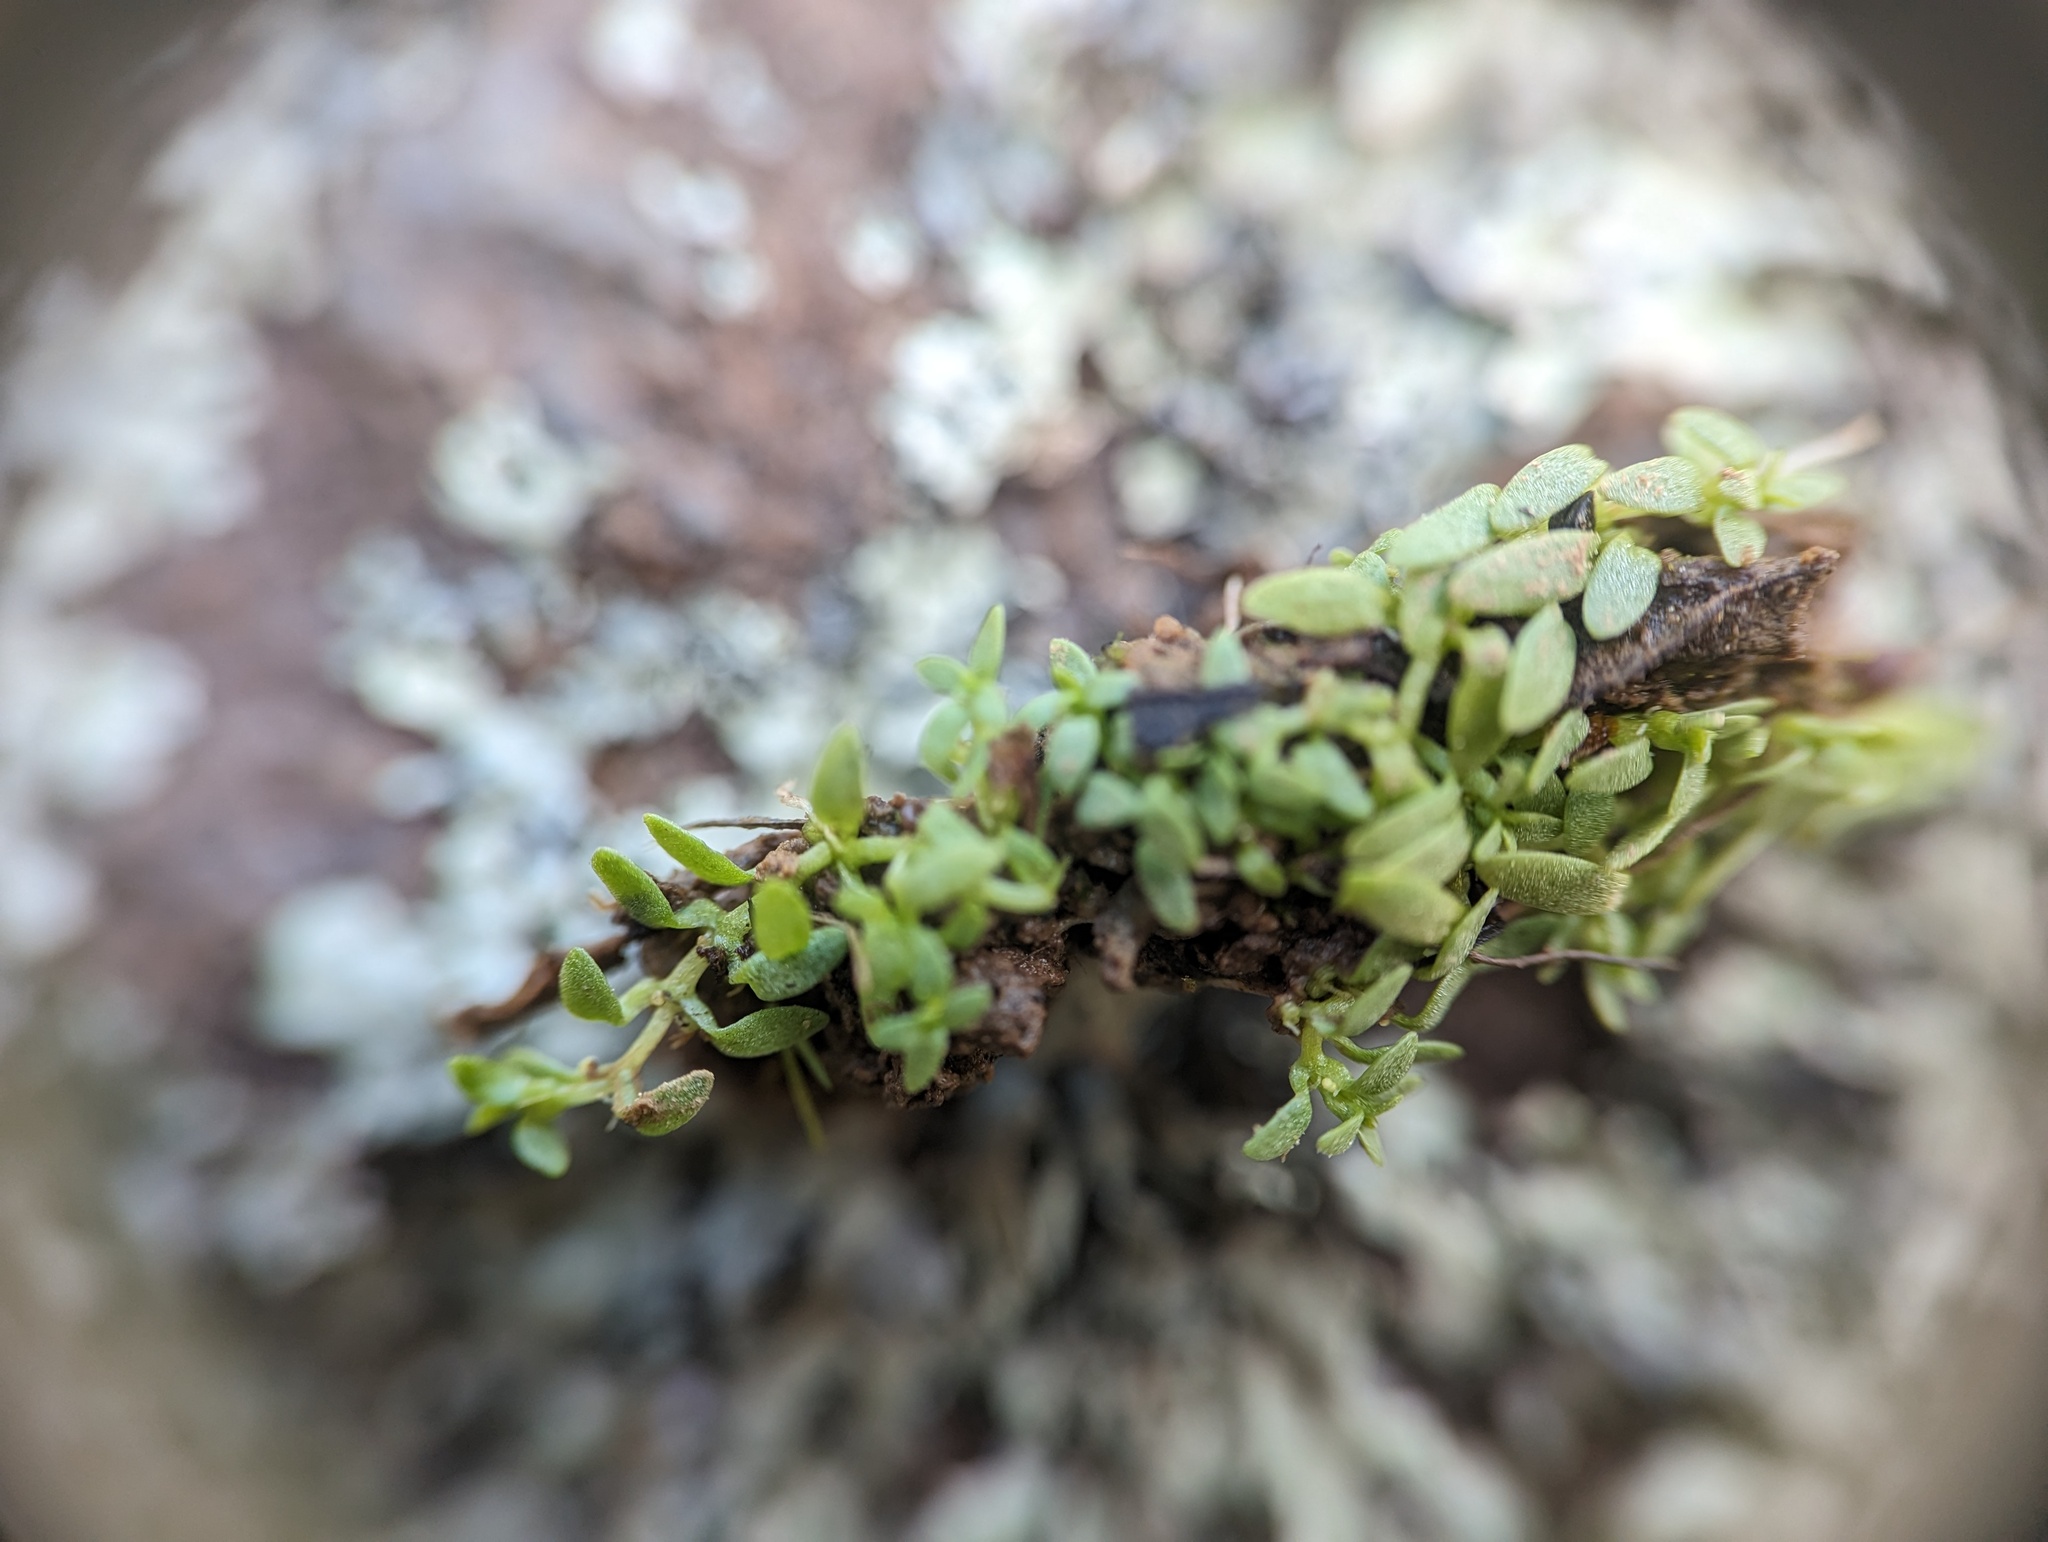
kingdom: Plantae
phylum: Tracheophyta
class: Magnoliopsida
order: Lamiales
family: Plantaginaceae
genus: Callitriche
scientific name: Callitriche terrestris
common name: Terrestrial water-starwort
